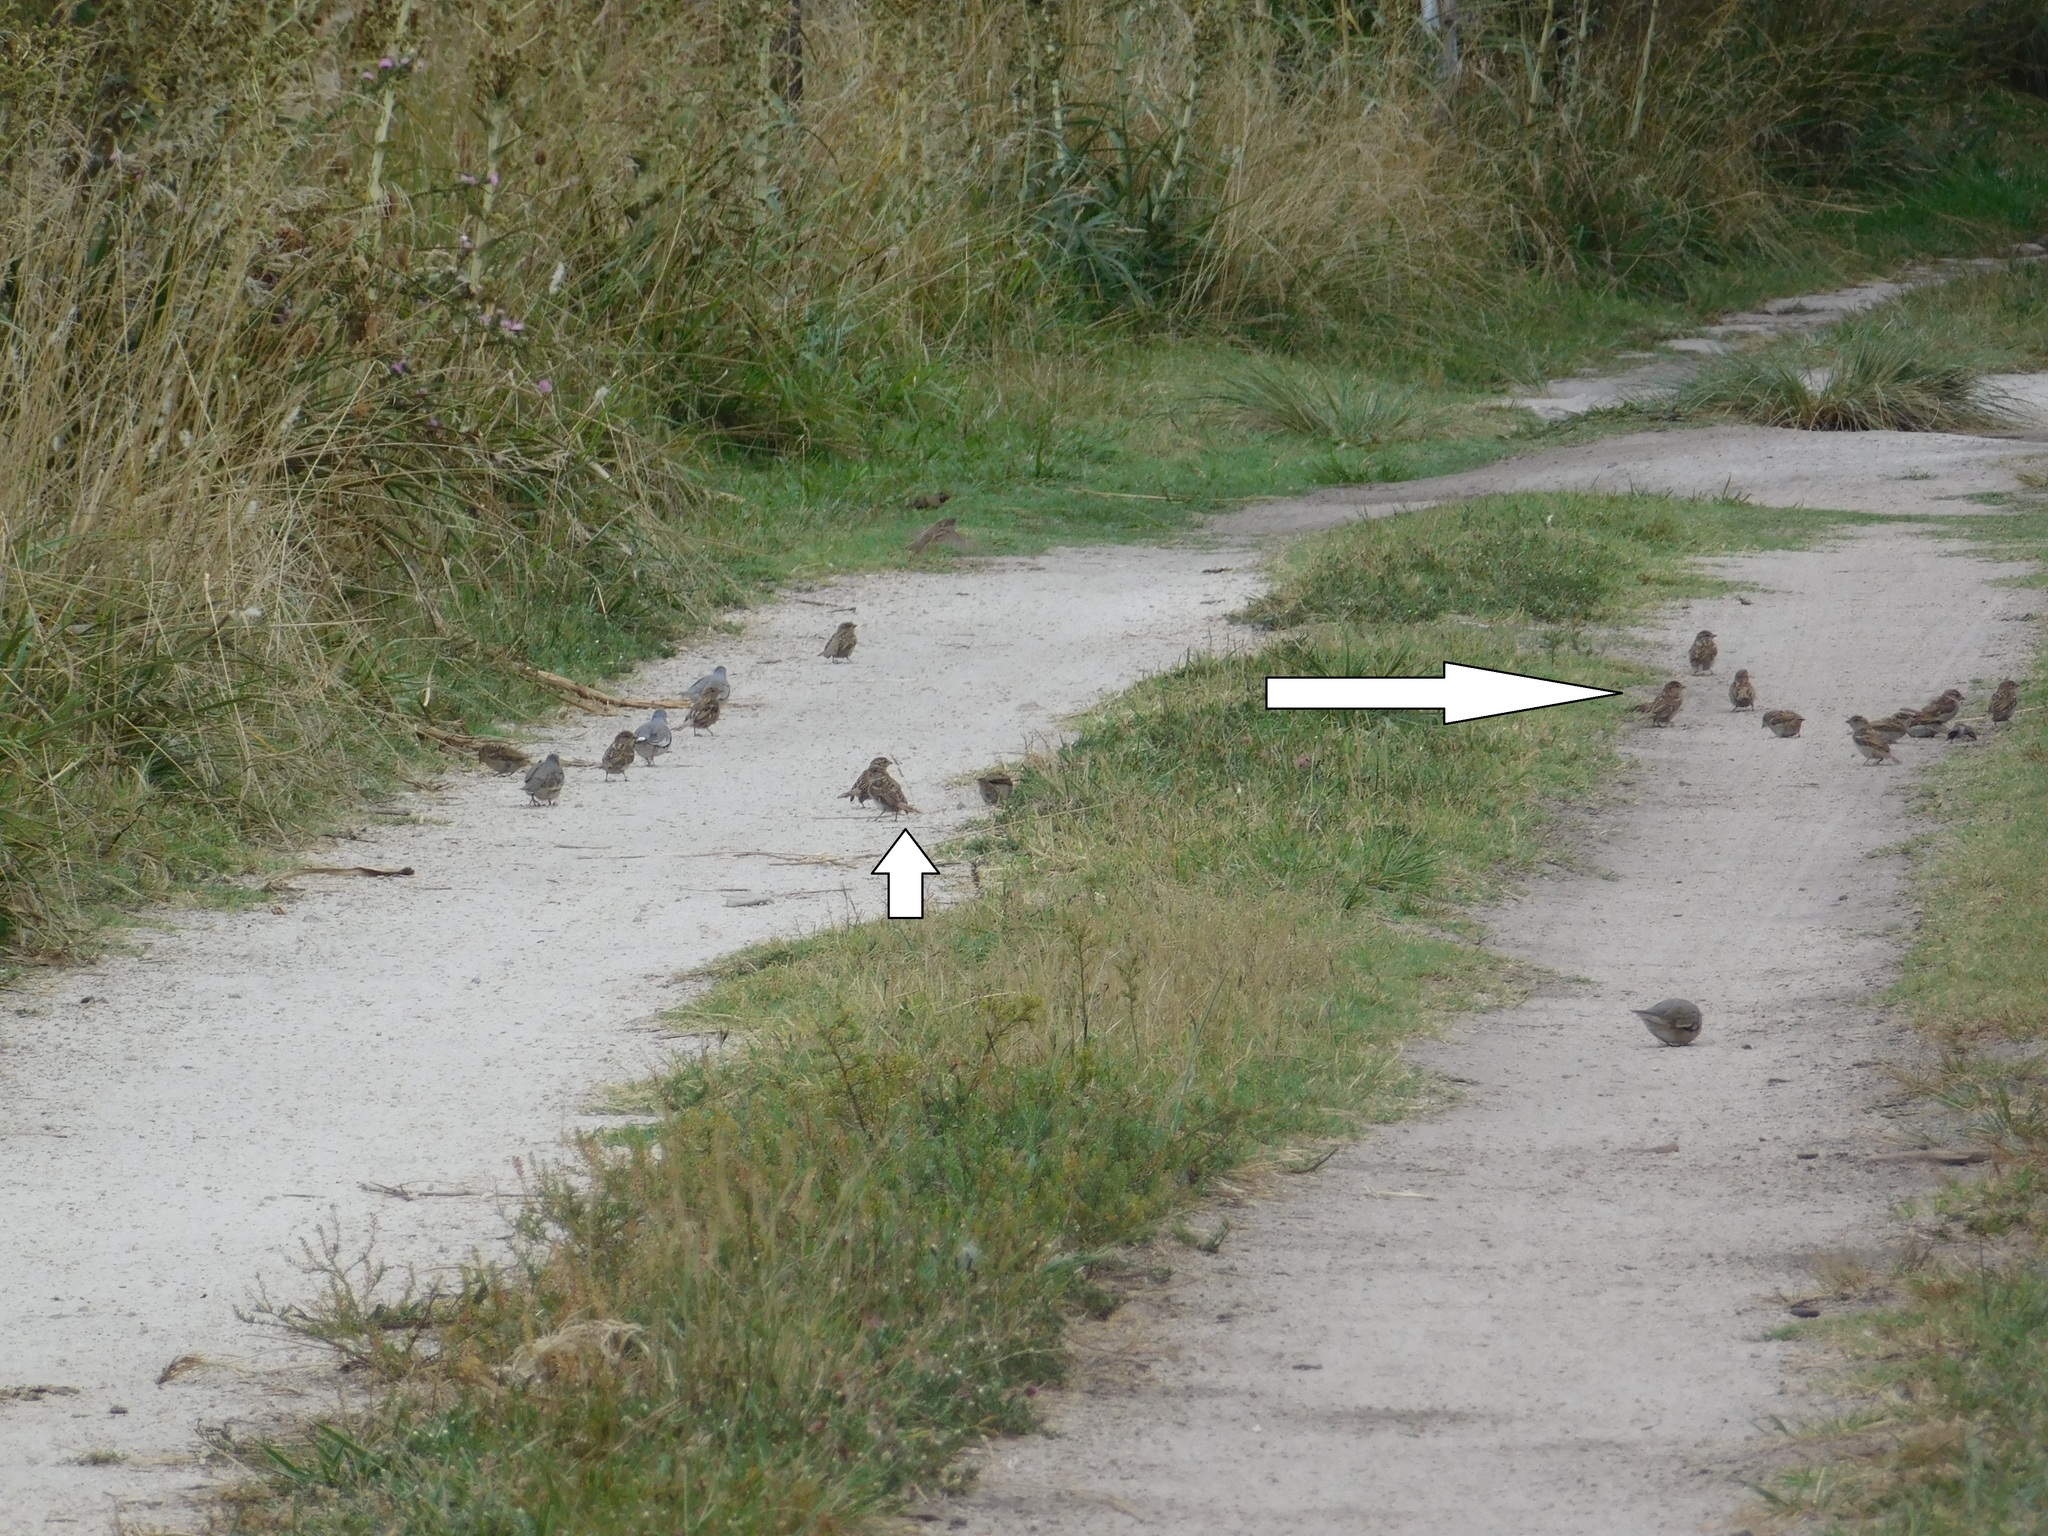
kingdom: Animalia
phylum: Chordata
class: Aves
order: Passeriformes
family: Passeridae
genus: Passer
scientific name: Passer domesticus
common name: House sparrow
